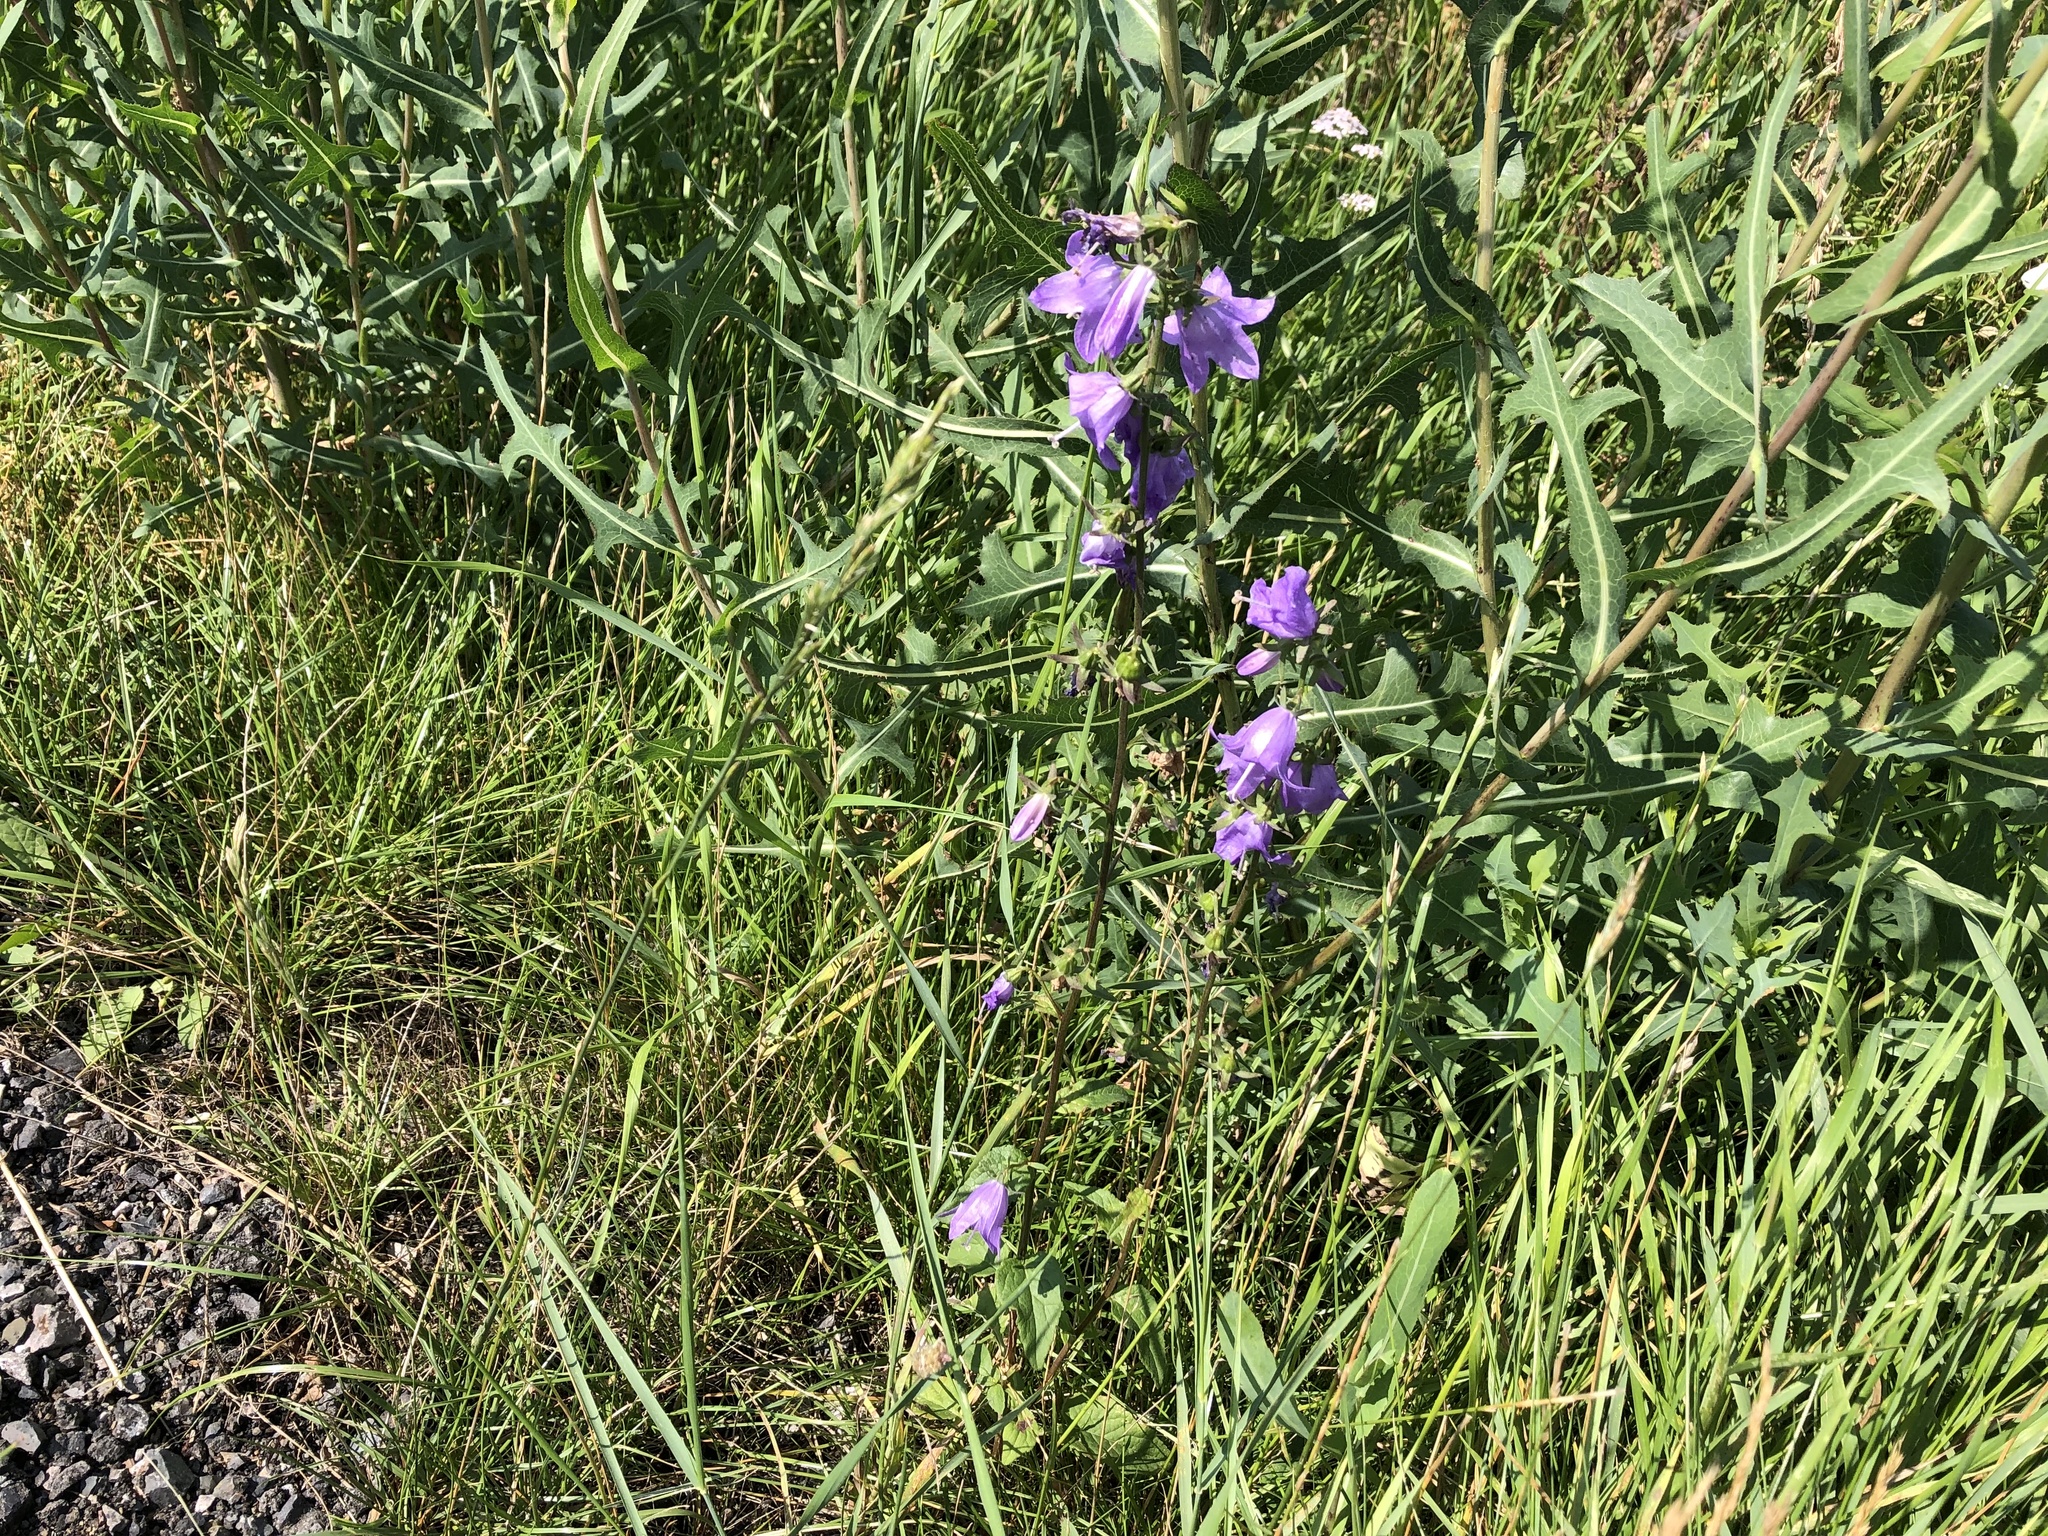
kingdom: Plantae
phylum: Tracheophyta
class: Magnoliopsida
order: Asterales
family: Campanulaceae
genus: Campanula
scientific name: Campanula rapunculoides
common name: Creeping bellflower
